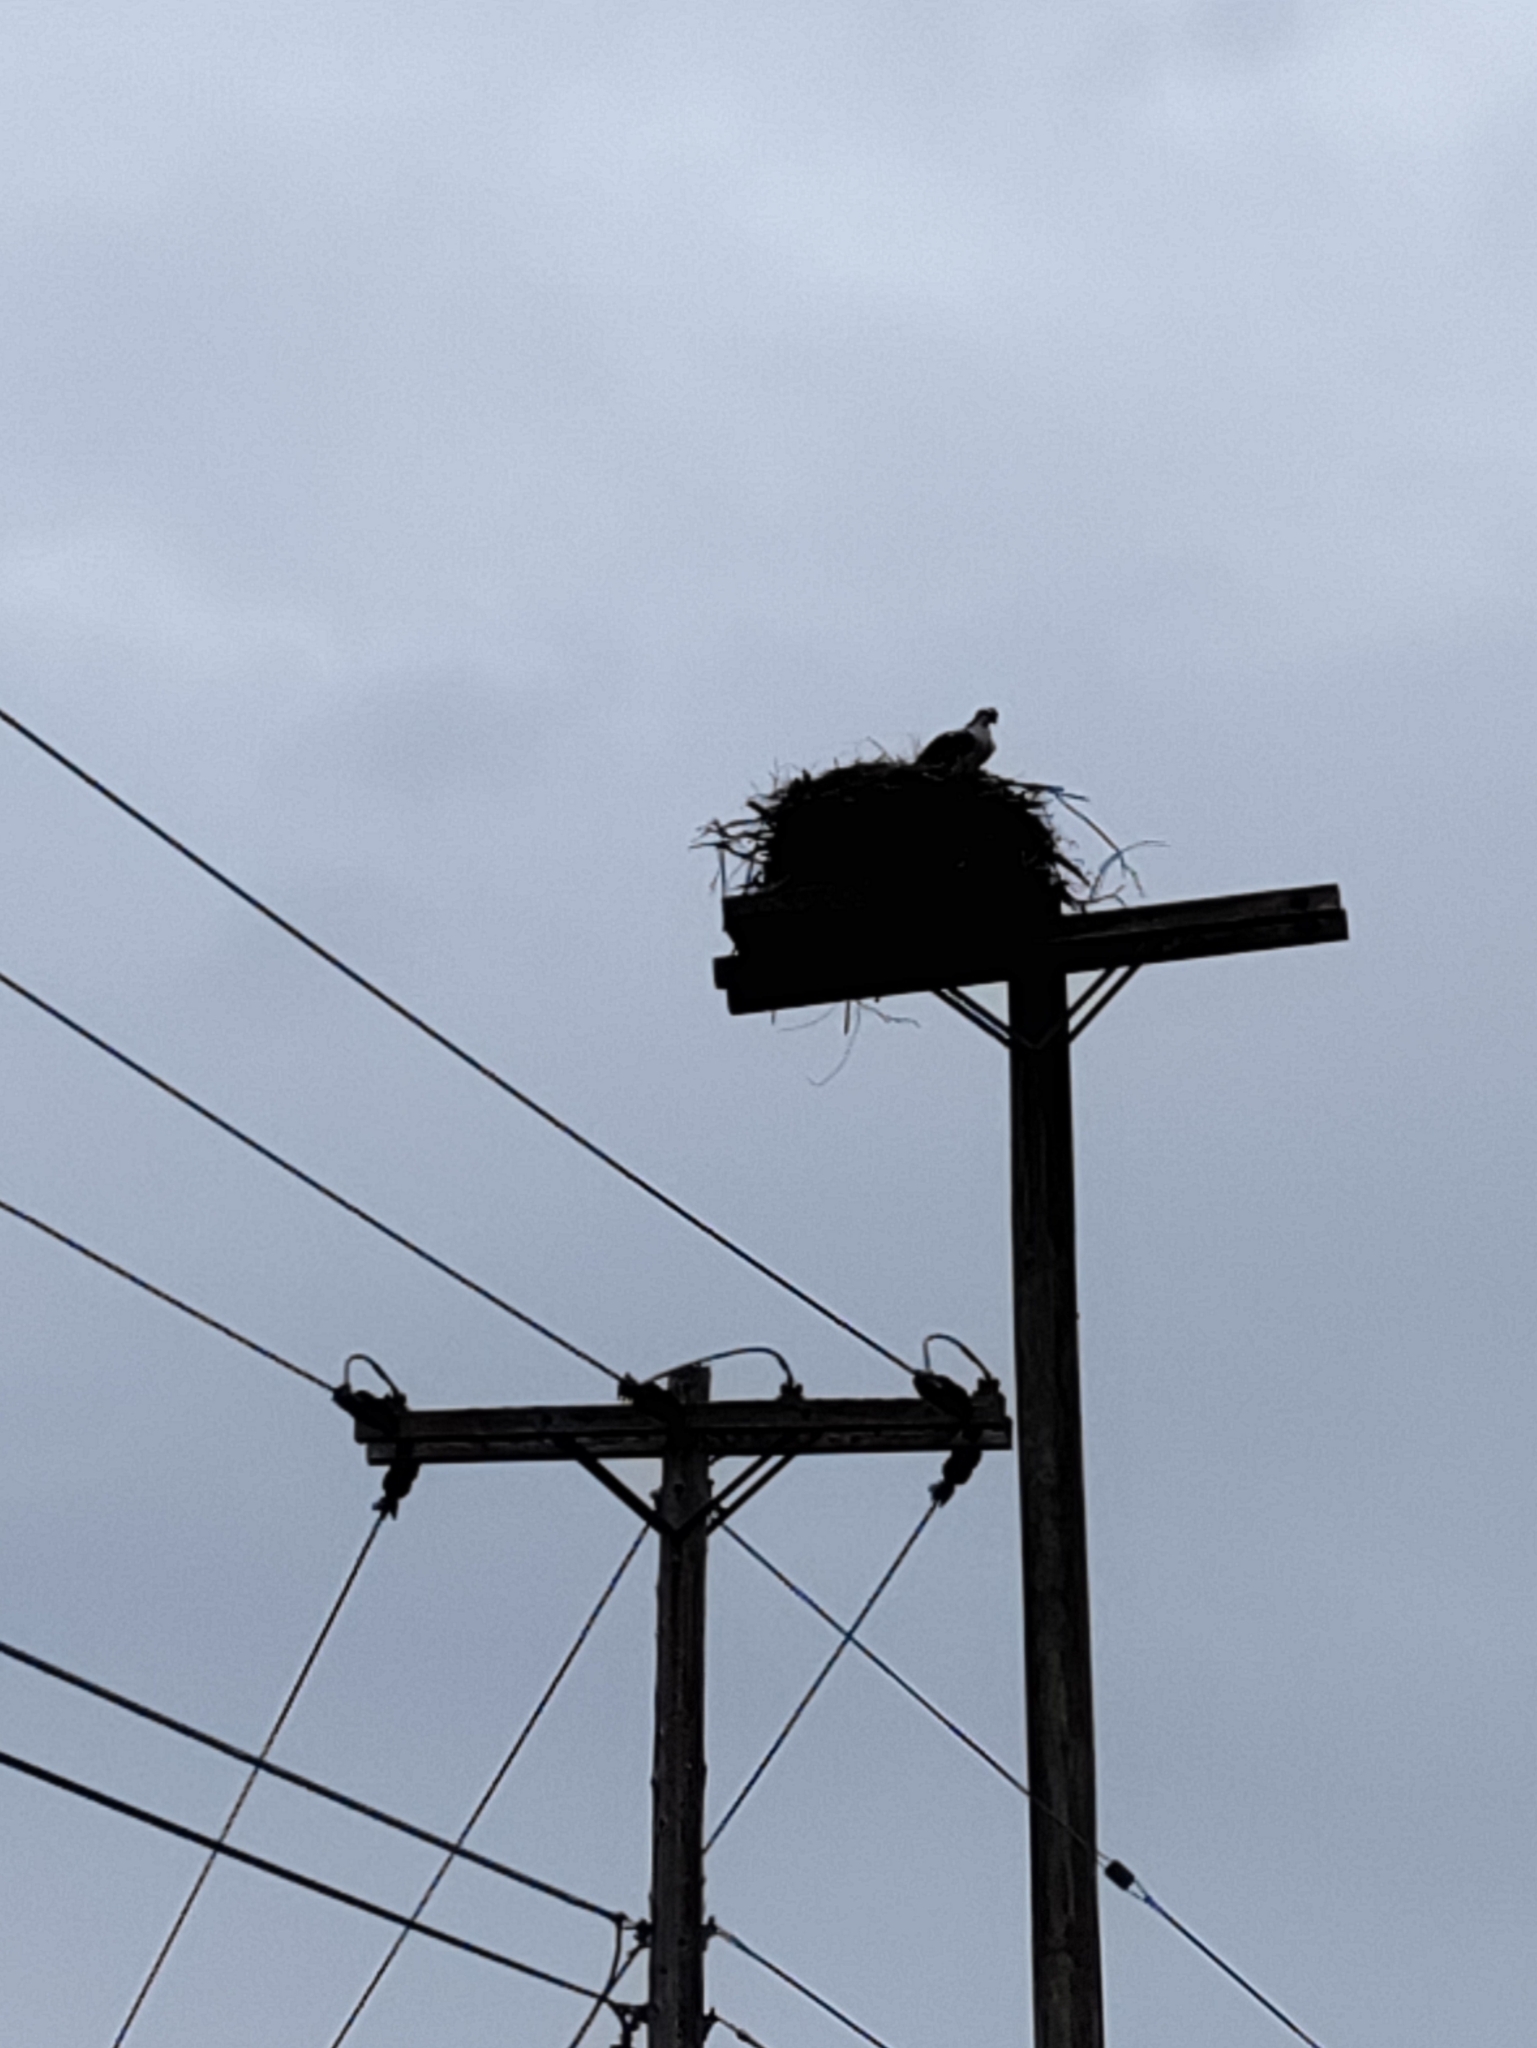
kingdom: Animalia
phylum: Chordata
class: Aves
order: Accipitriformes
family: Pandionidae
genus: Pandion
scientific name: Pandion haliaetus
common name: Osprey
